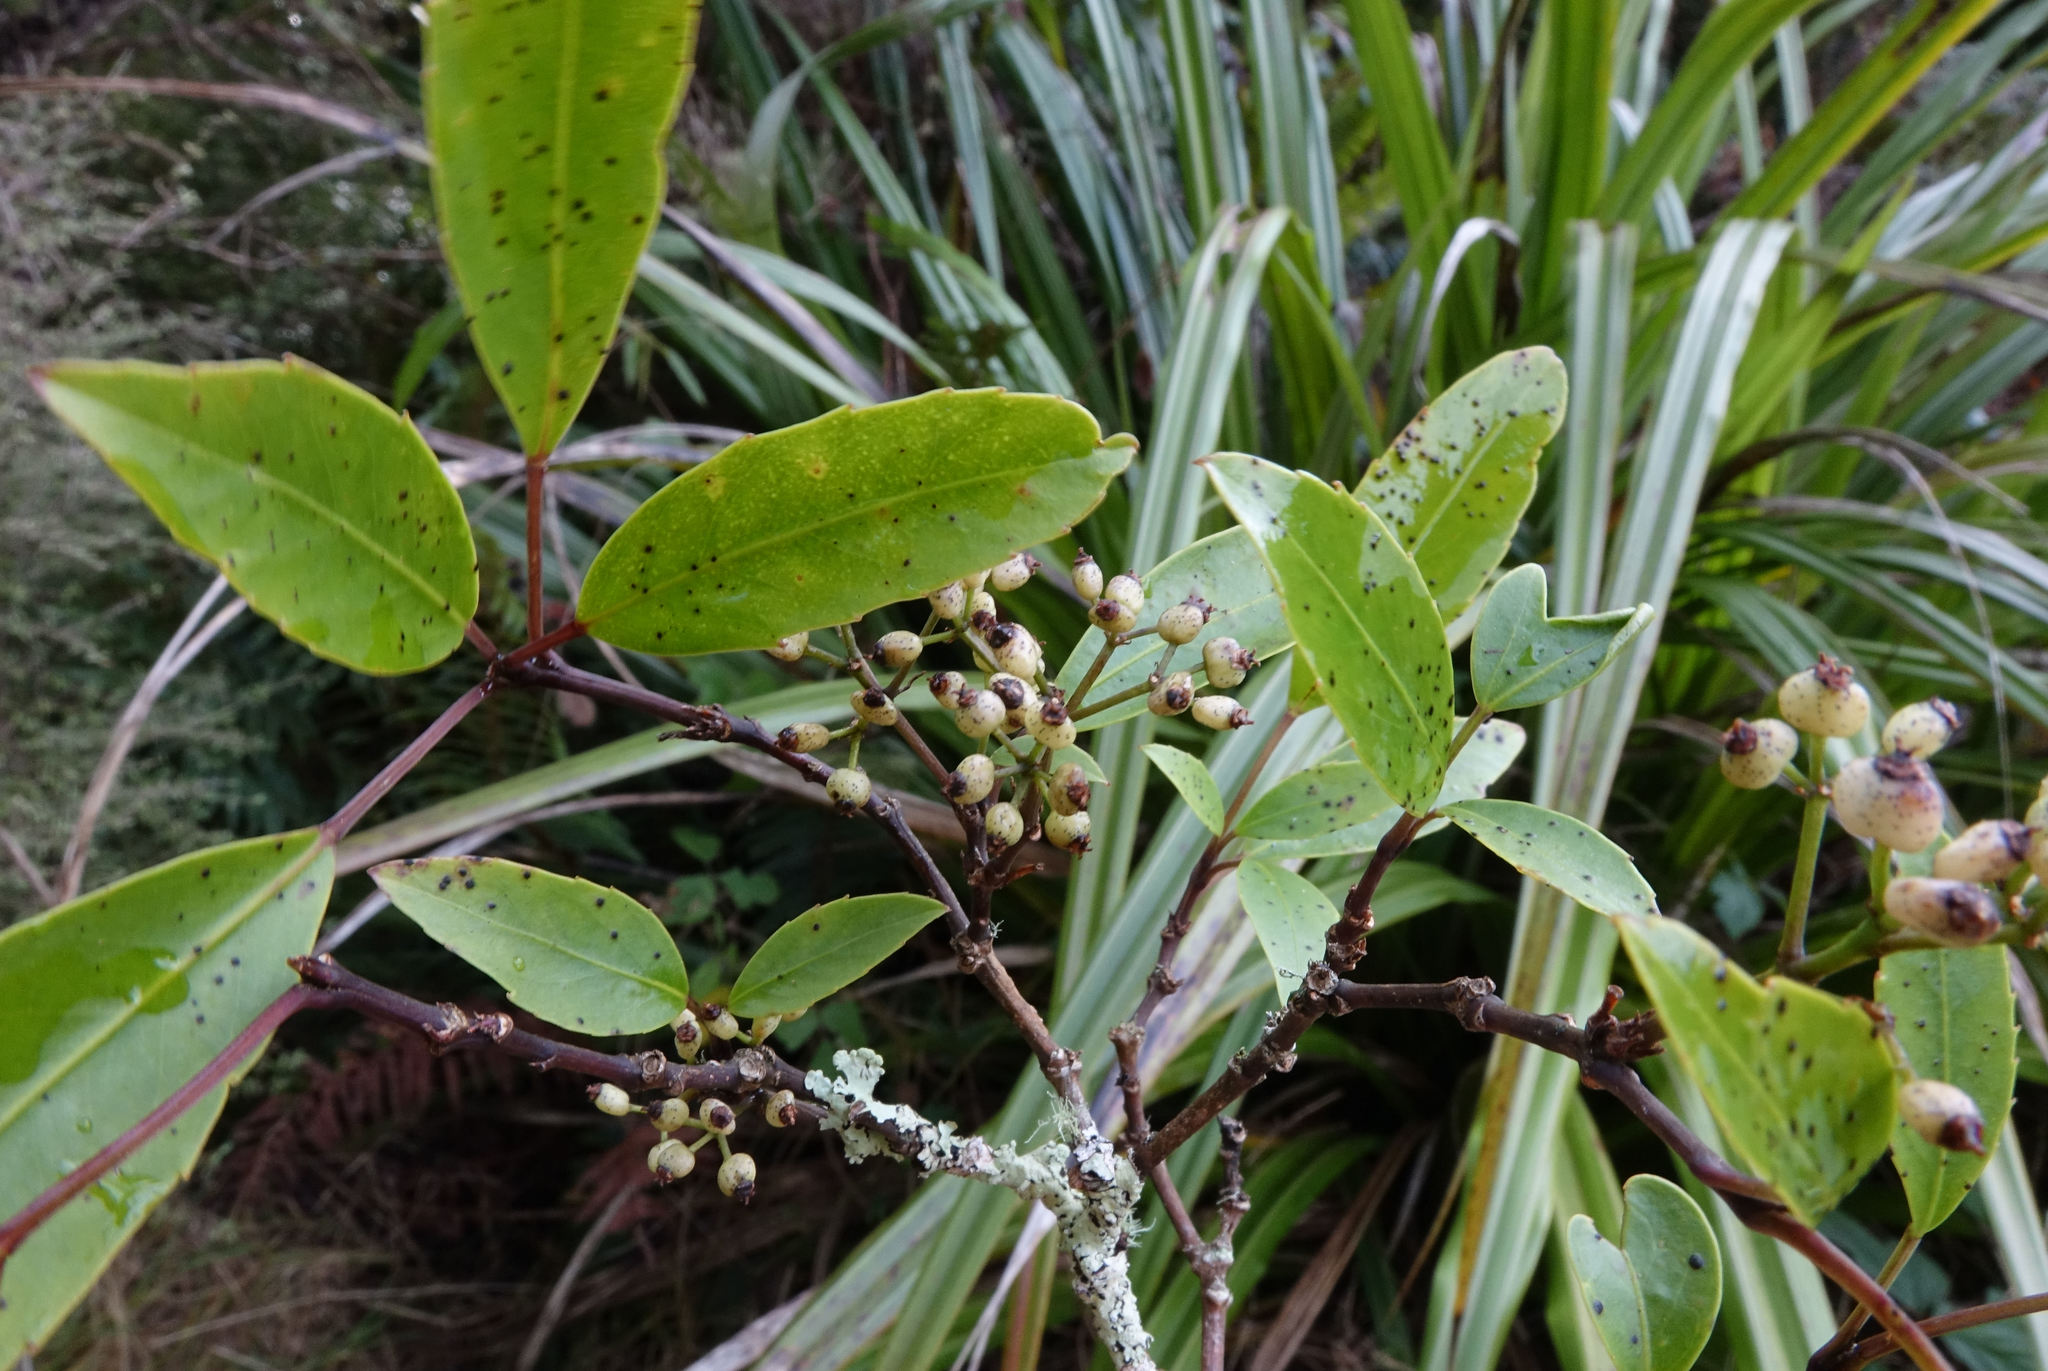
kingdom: Plantae
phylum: Tracheophyta
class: Magnoliopsida
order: Apiales
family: Araliaceae
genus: Raukaua
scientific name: Raukaua simplex
